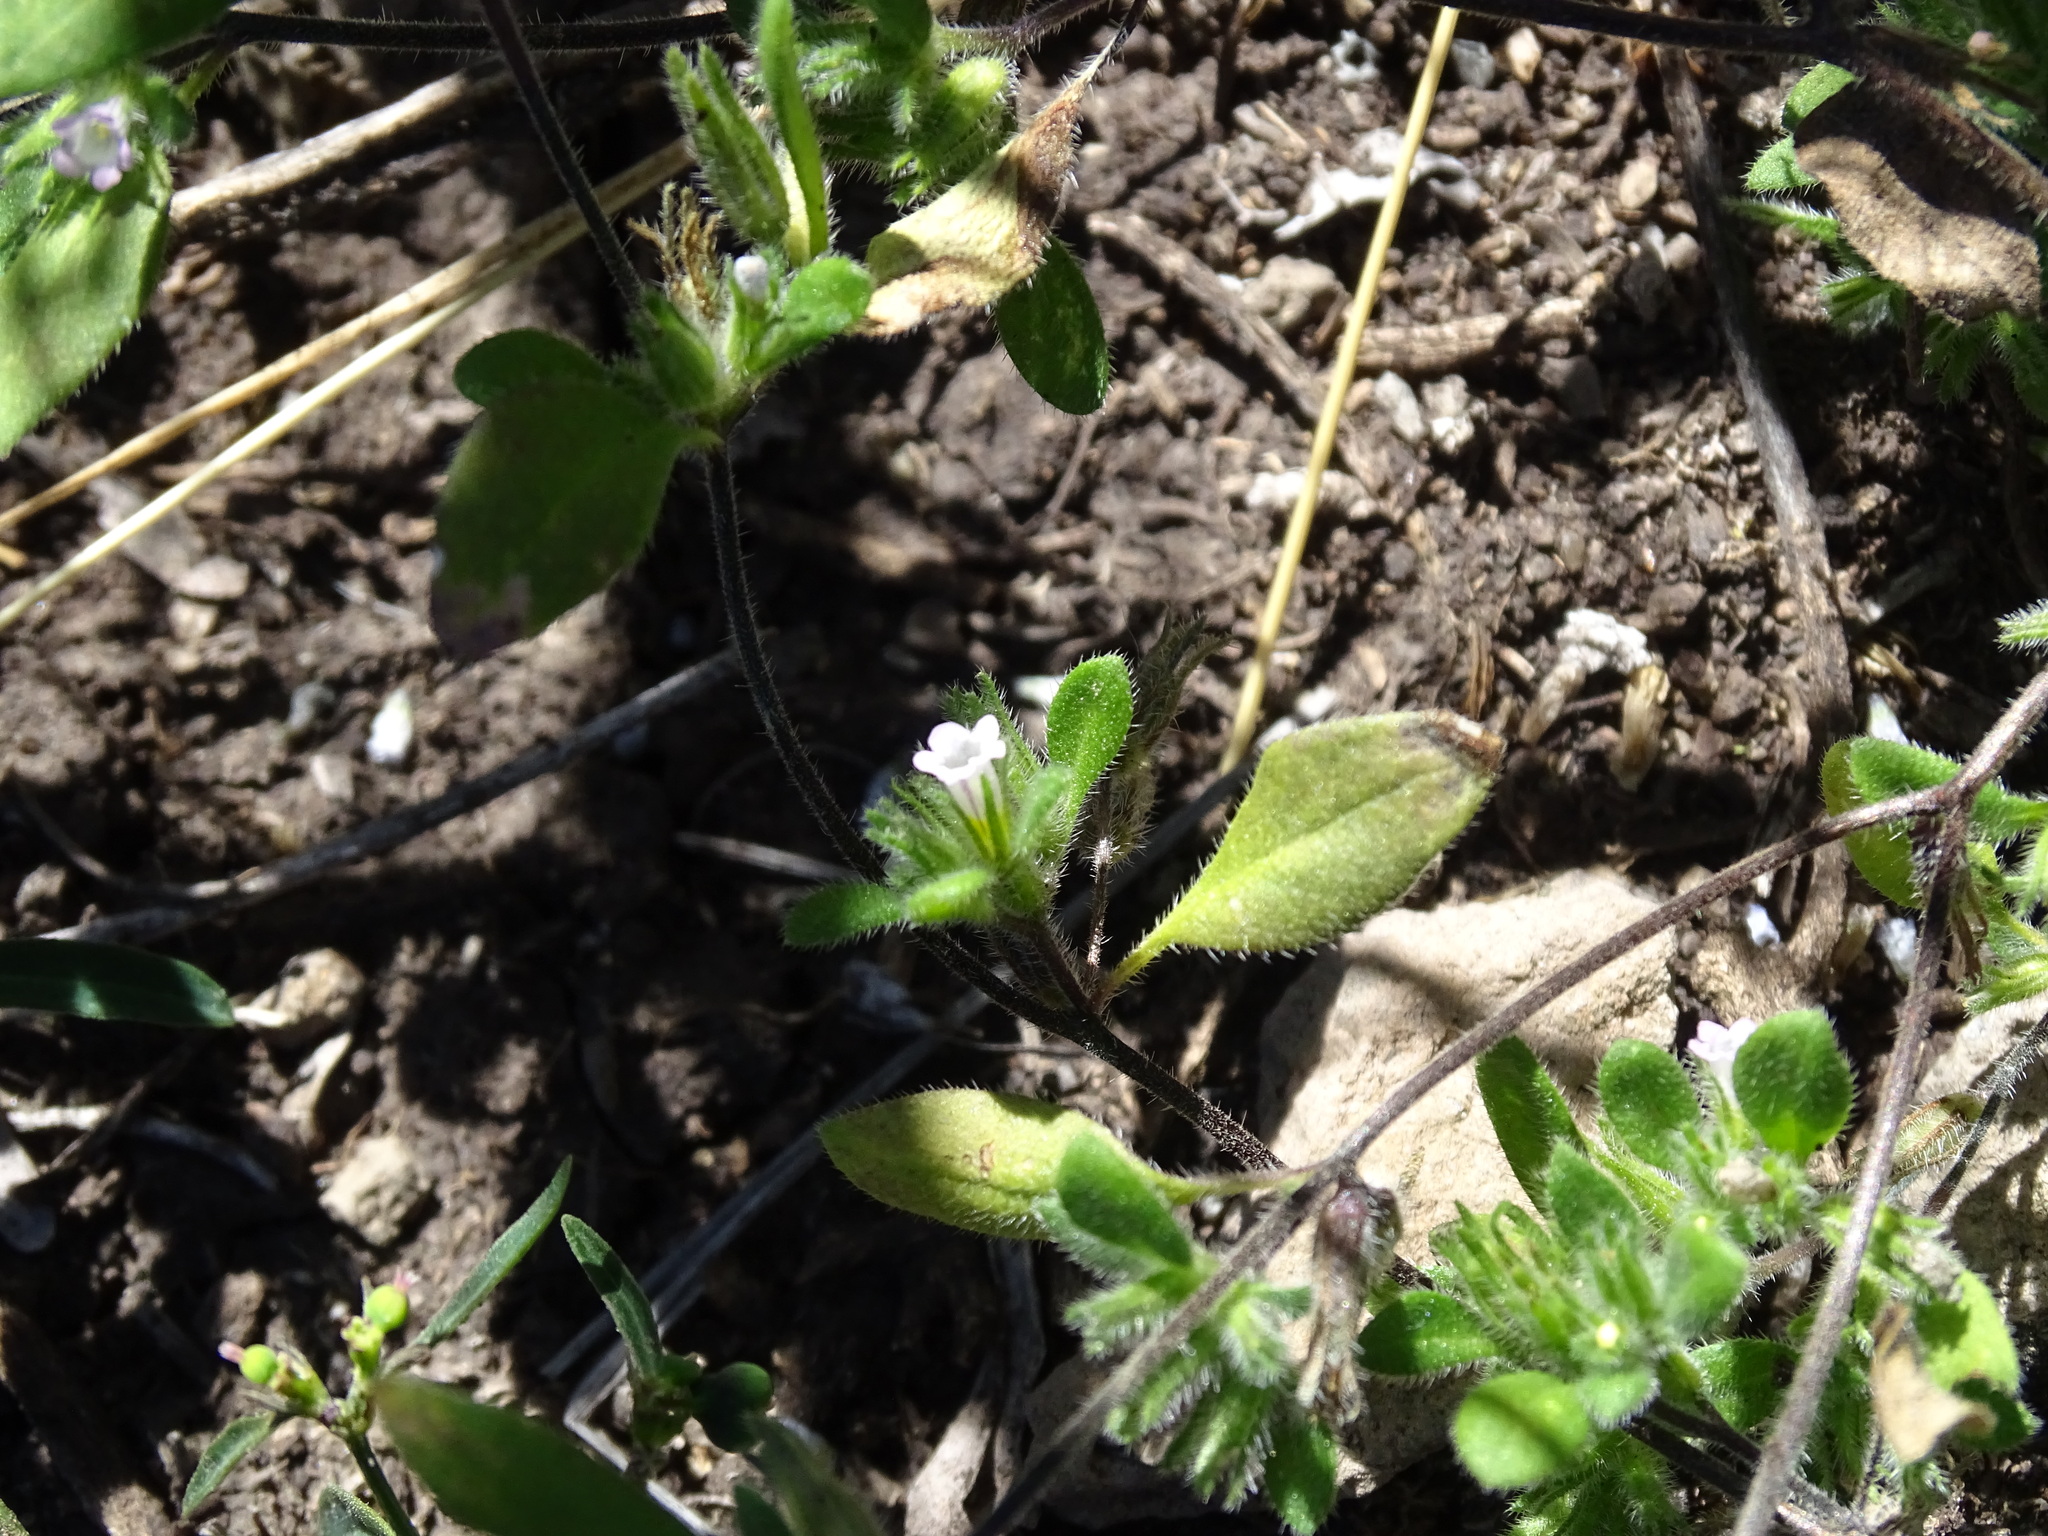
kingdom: Plantae
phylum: Tracheophyta
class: Magnoliopsida
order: Boraginales
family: Namaceae
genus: Nama
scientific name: Nama dichotoma
